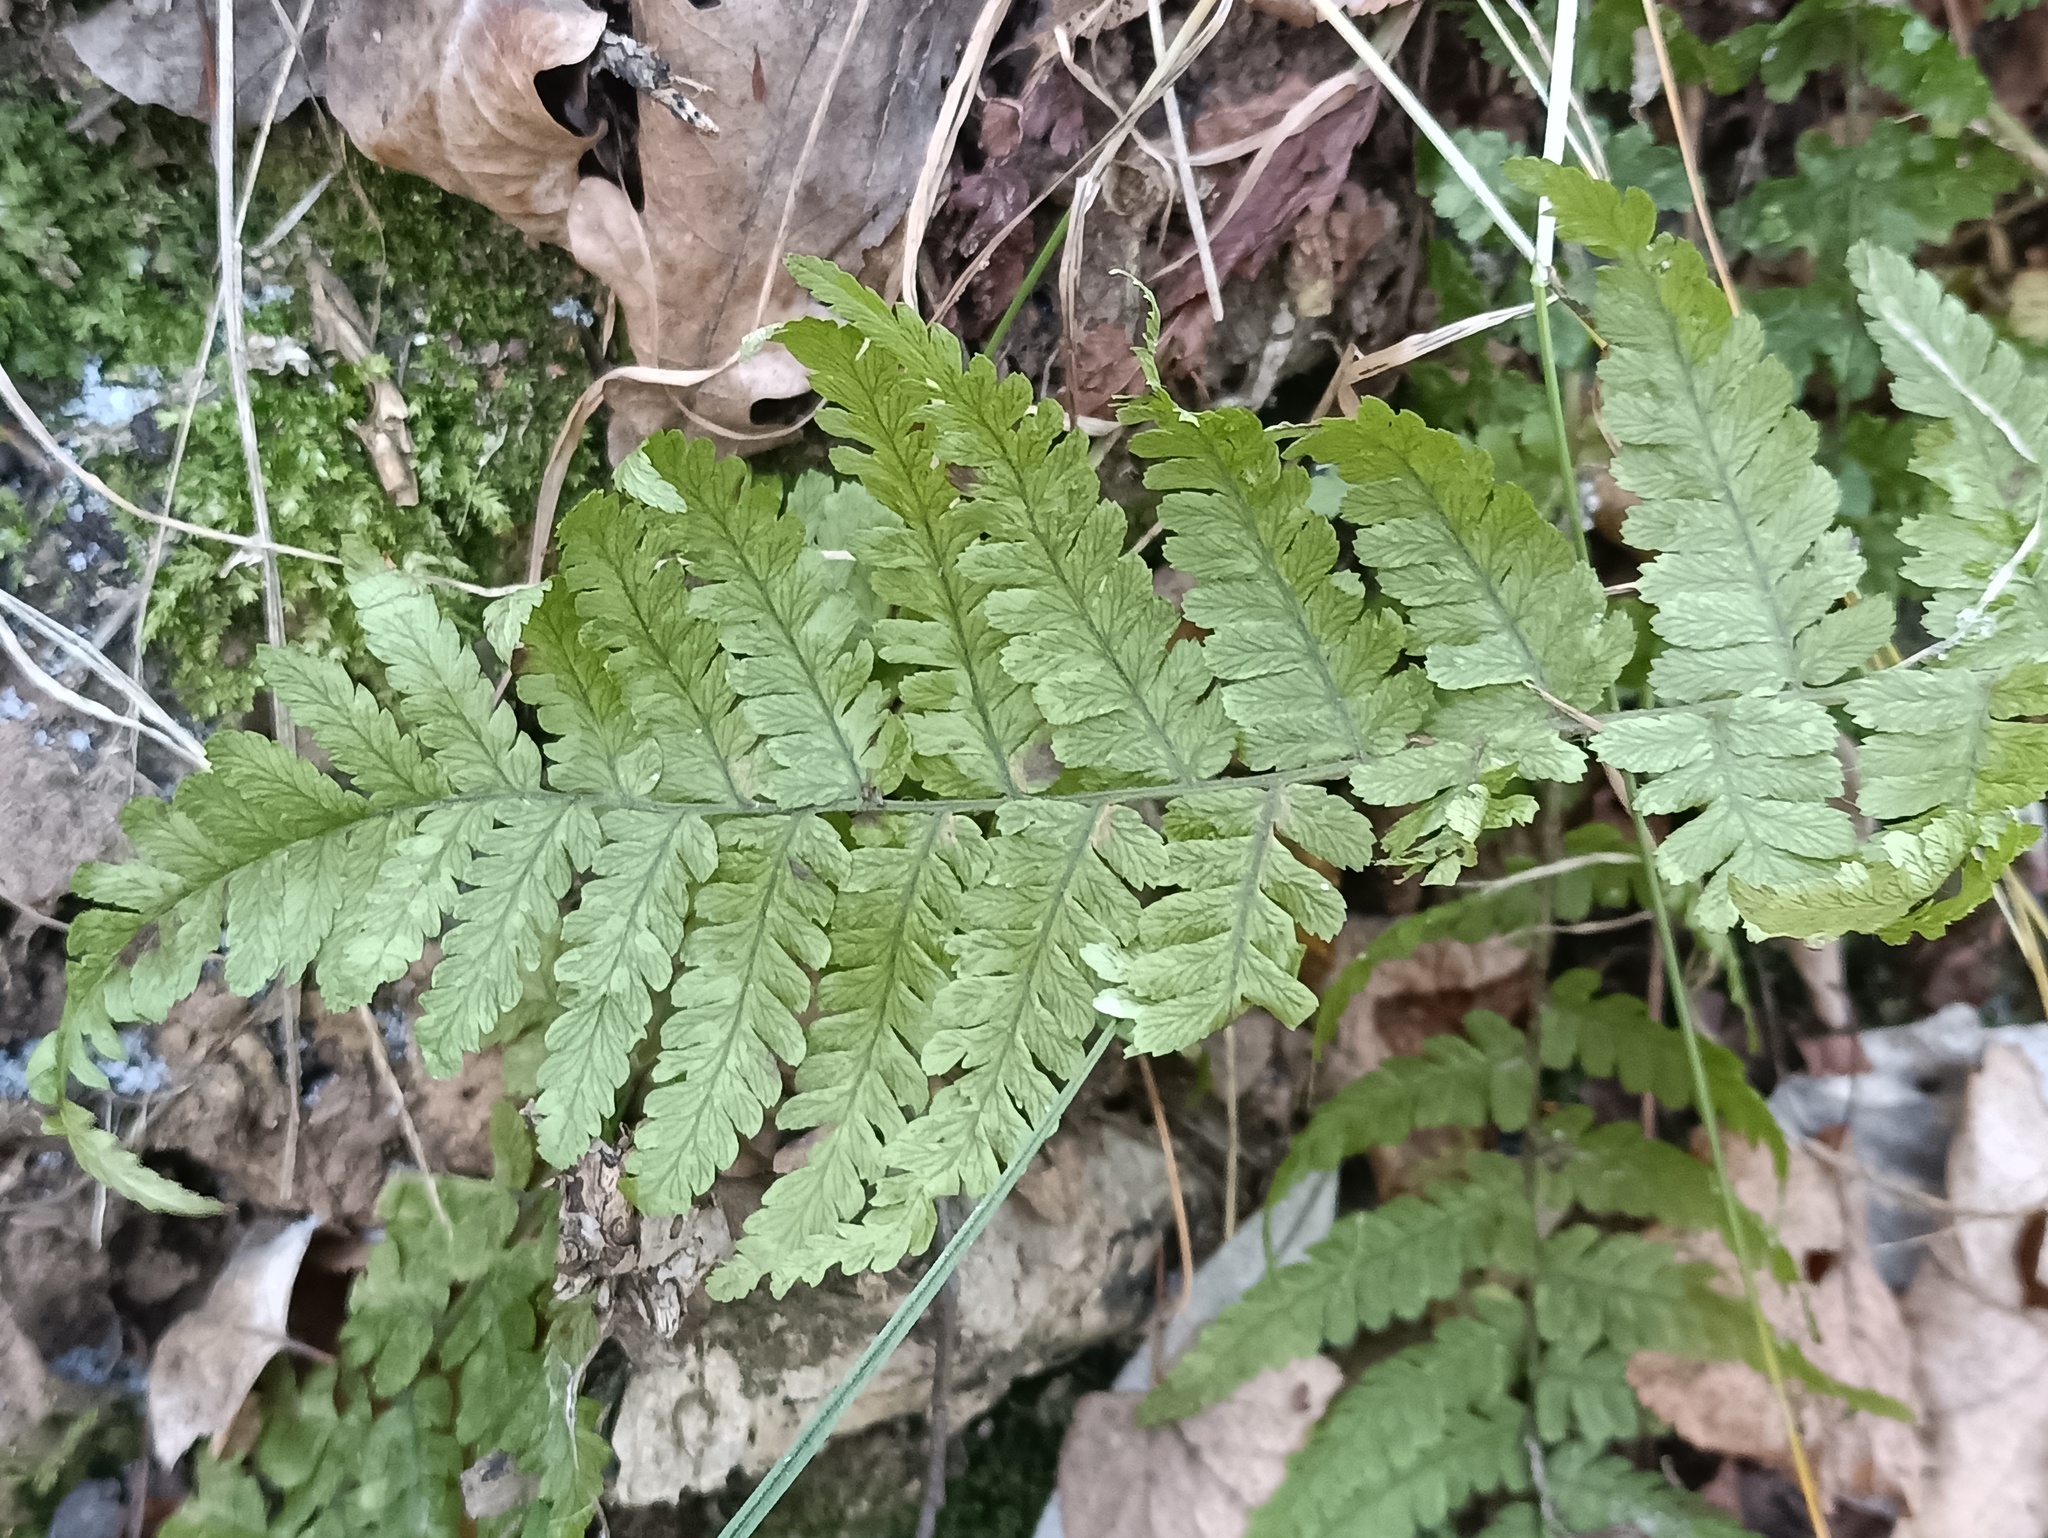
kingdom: Plantae
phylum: Tracheophyta
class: Polypodiopsida
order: Polypodiales
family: Dryopteridaceae
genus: Dryopteris
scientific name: Dryopteris filix-mas
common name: Male fern
